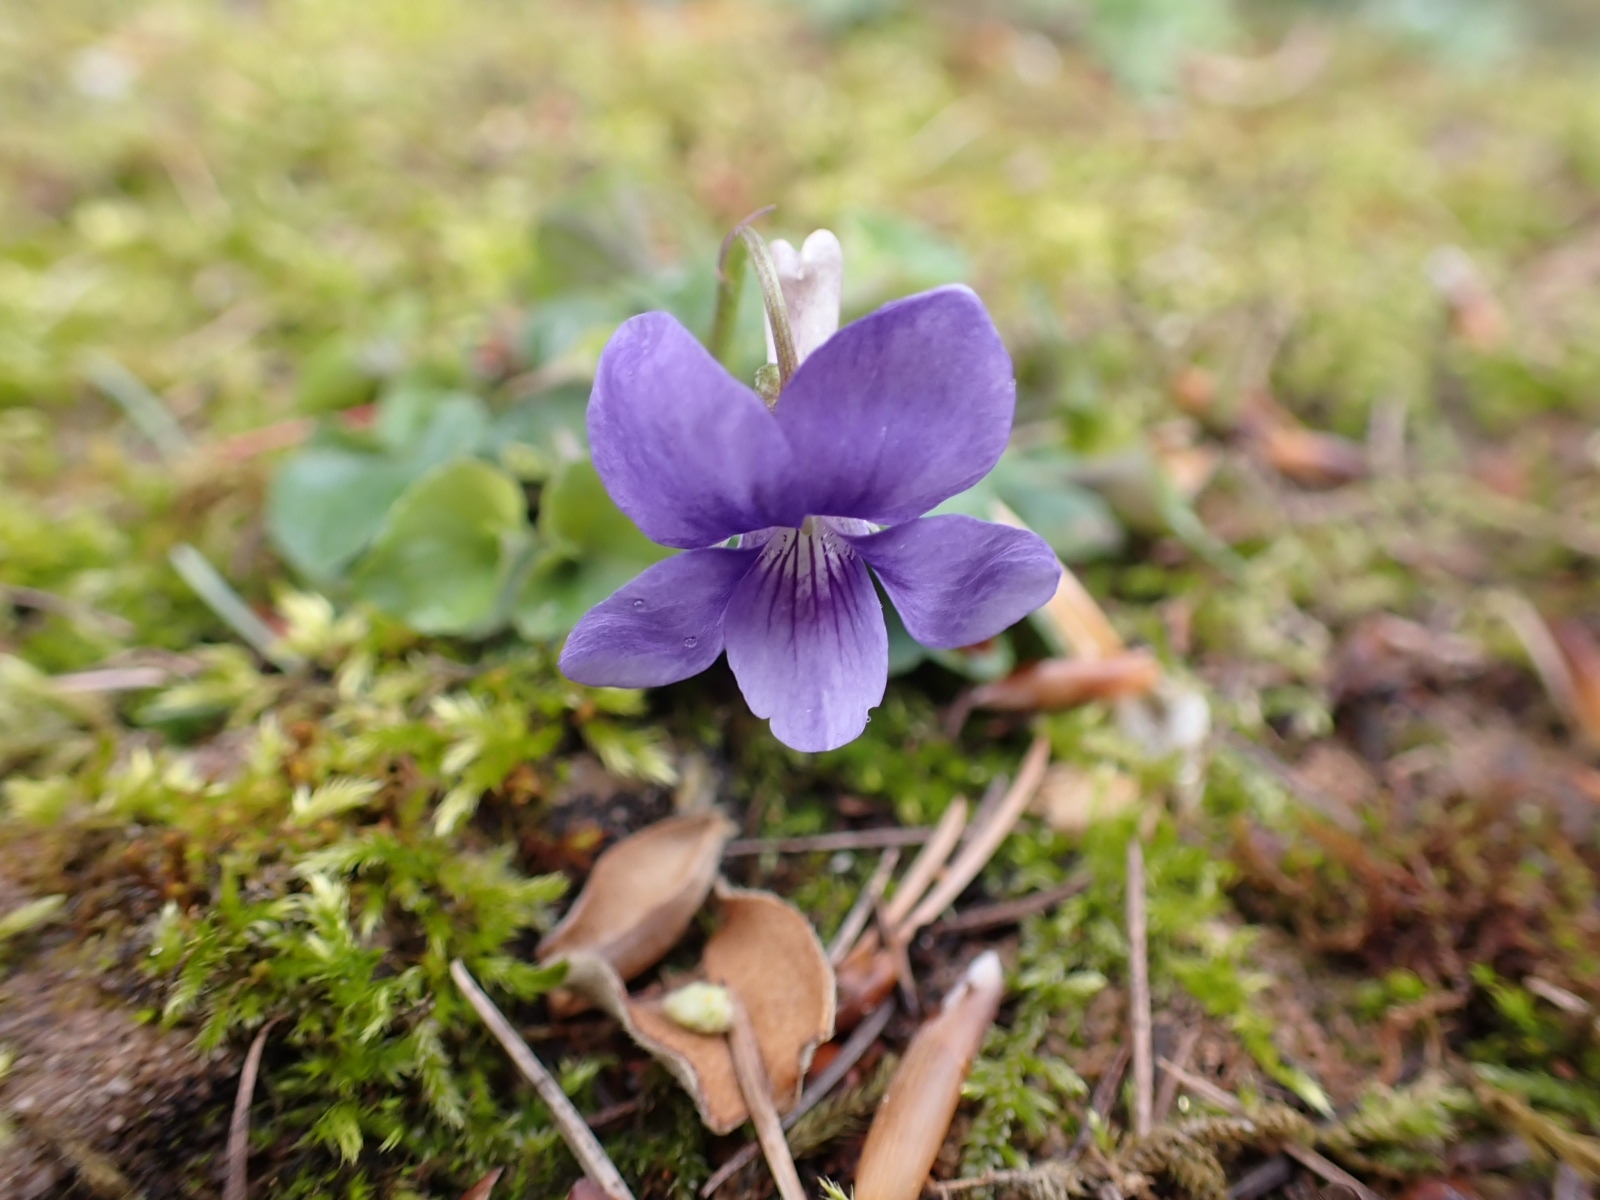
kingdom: Plantae
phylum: Tracheophyta
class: Magnoliopsida
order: Malpighiales
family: Violaceae
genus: Viola
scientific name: Viola riviniana
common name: Common dog-violet
